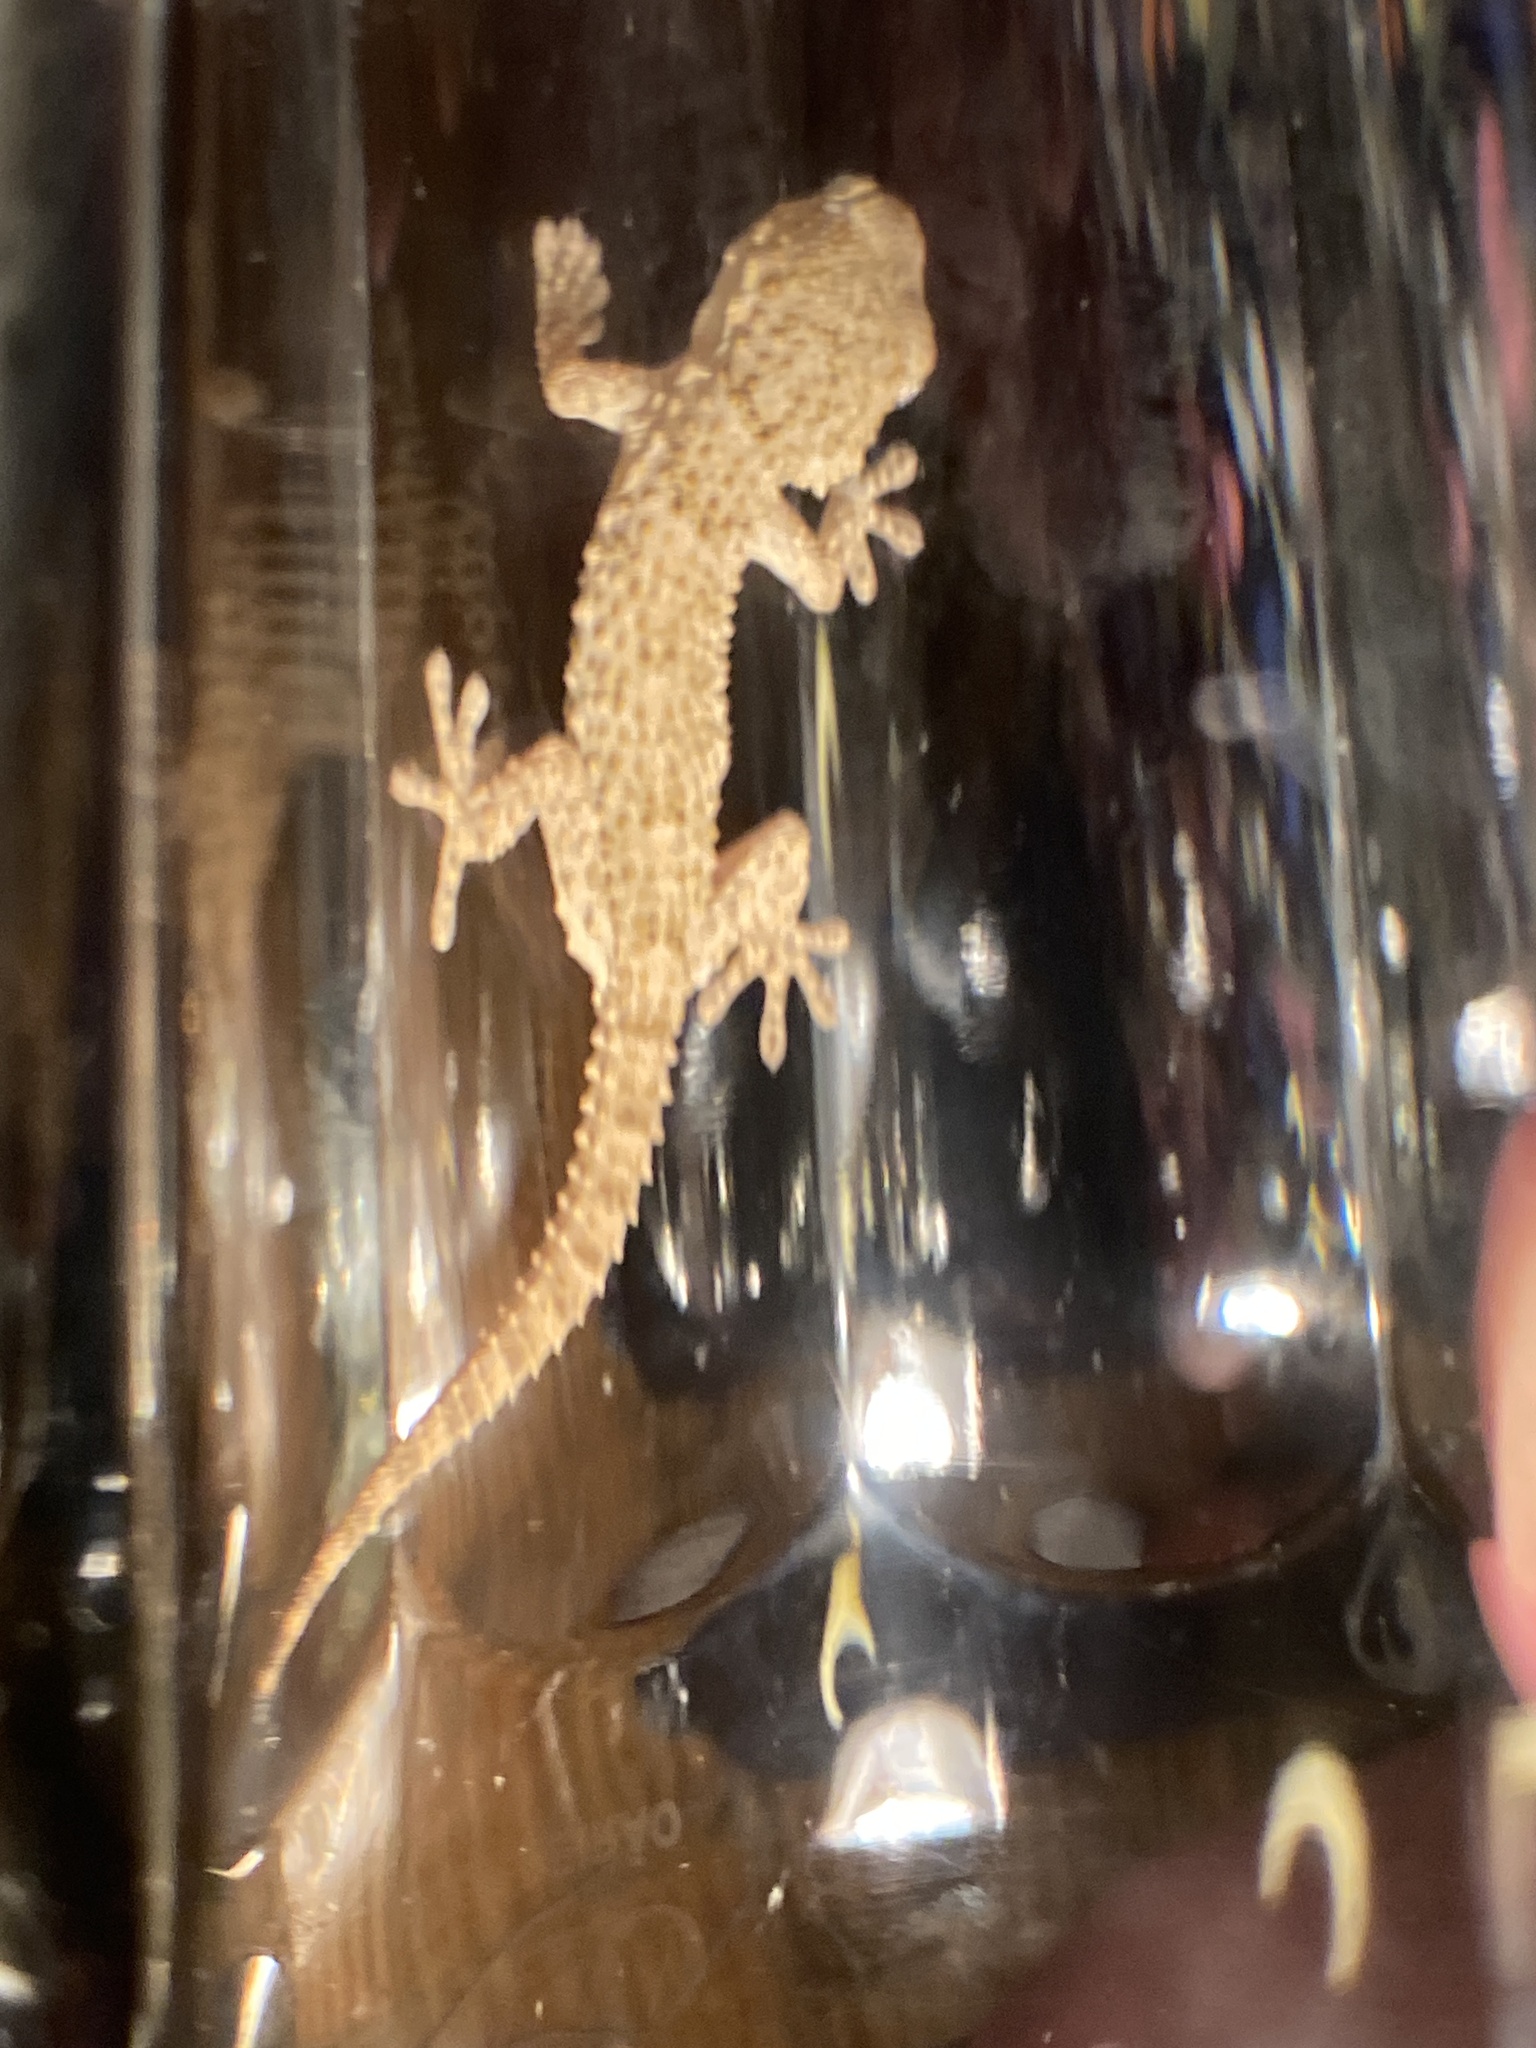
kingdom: Animalia
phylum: Chordata
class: Squamata
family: Phyllodactylidae
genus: Tarentola
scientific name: Tarentola mauritanica
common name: Moorish gecko
